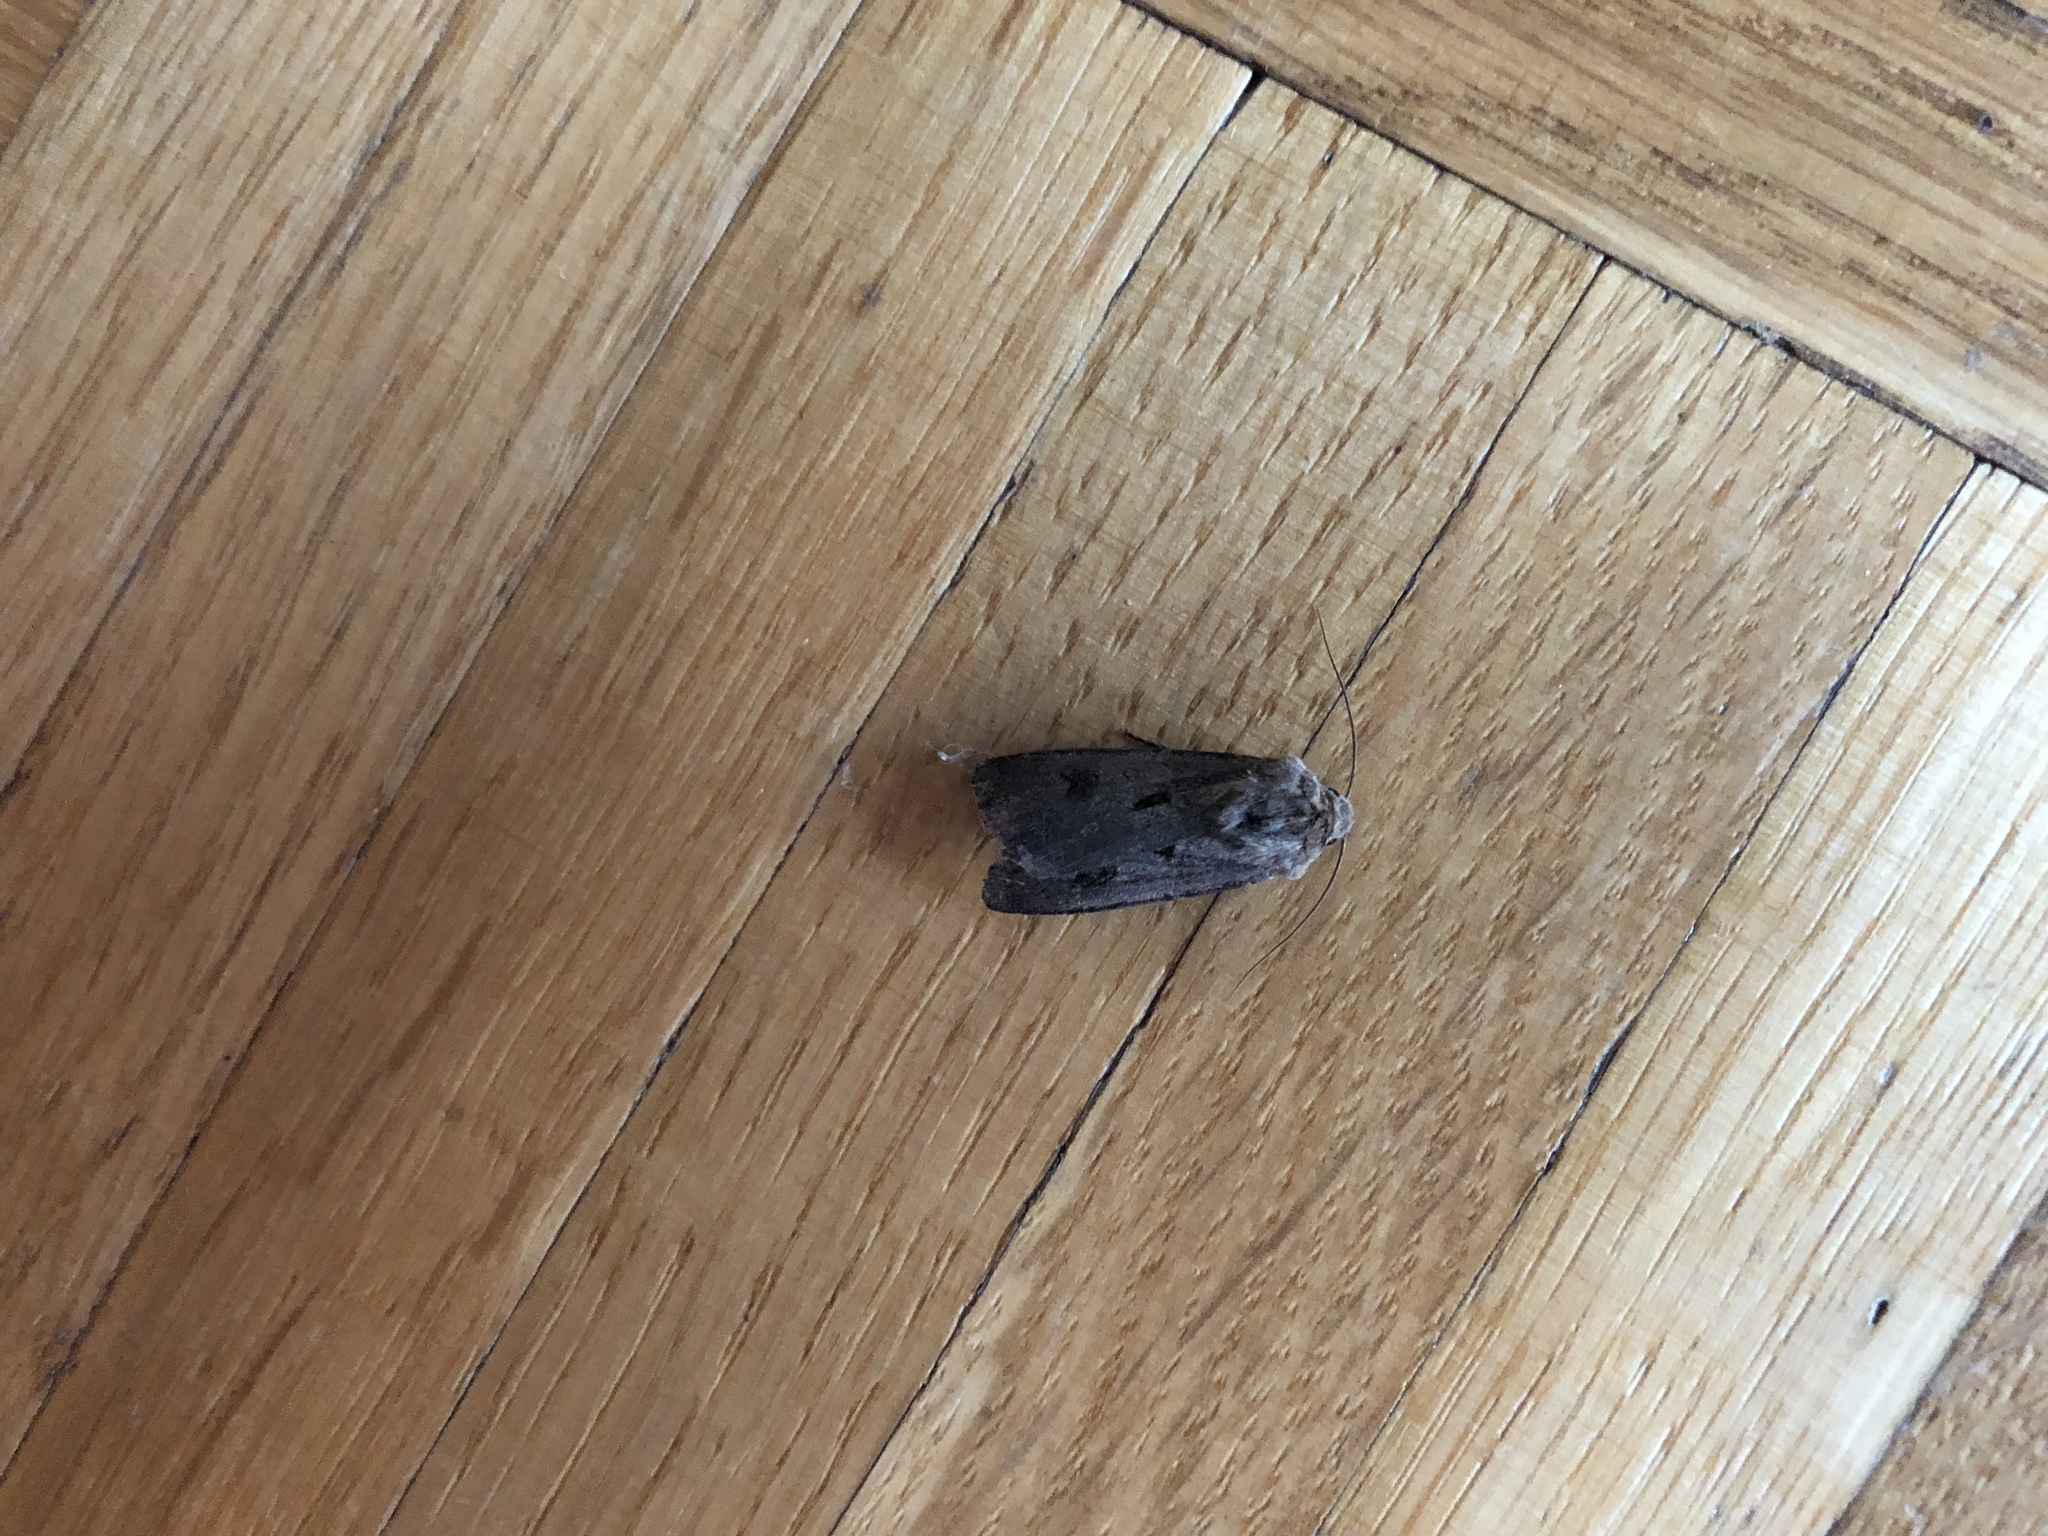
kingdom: Animalia
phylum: Arthropoda
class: Insecta
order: Lepidoptera
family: Noctuidae
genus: Agrotis
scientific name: Agrotis exclamationis
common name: Heart and dart
